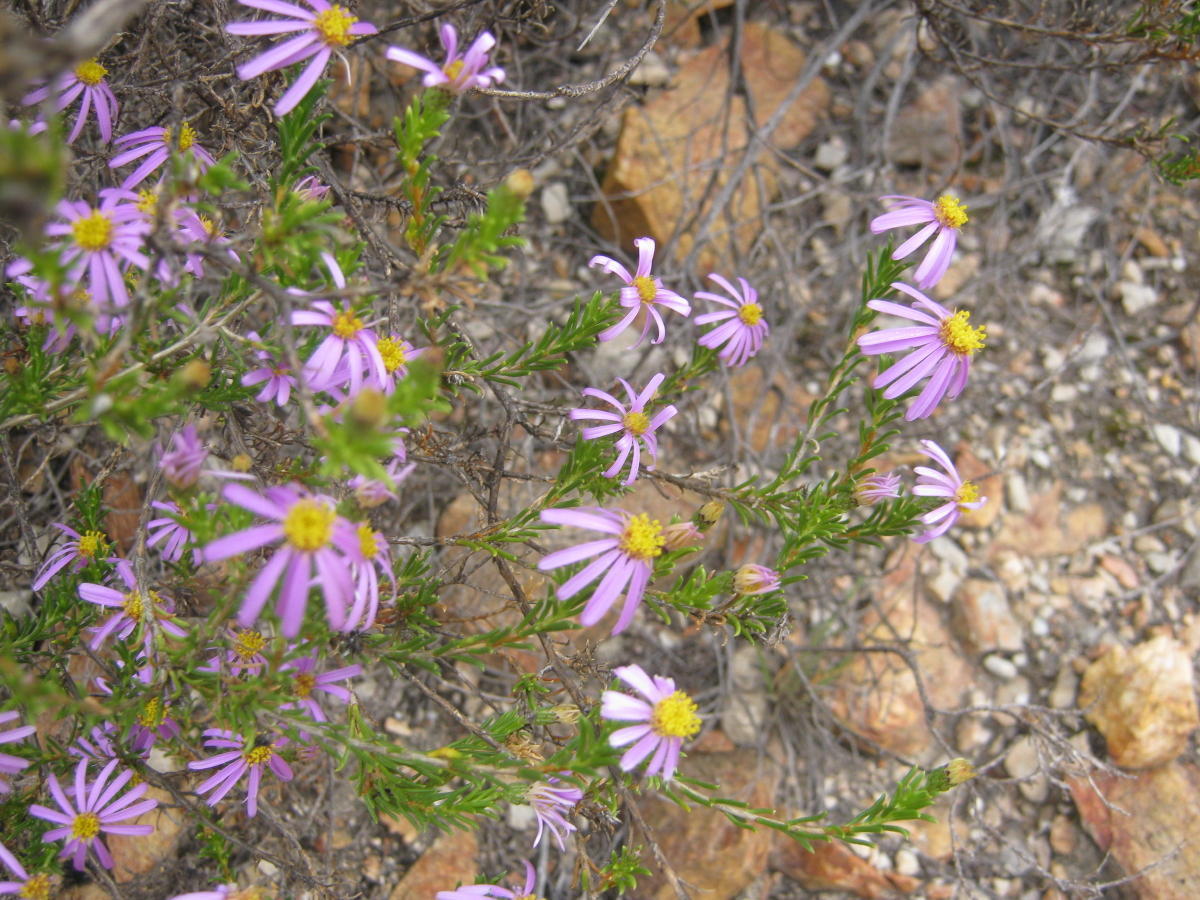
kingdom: Plantae
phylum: Tracheophyta
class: Magnoliopsida
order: Asterales
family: Asteraceae
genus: Felicia
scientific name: Felicia filifolia
